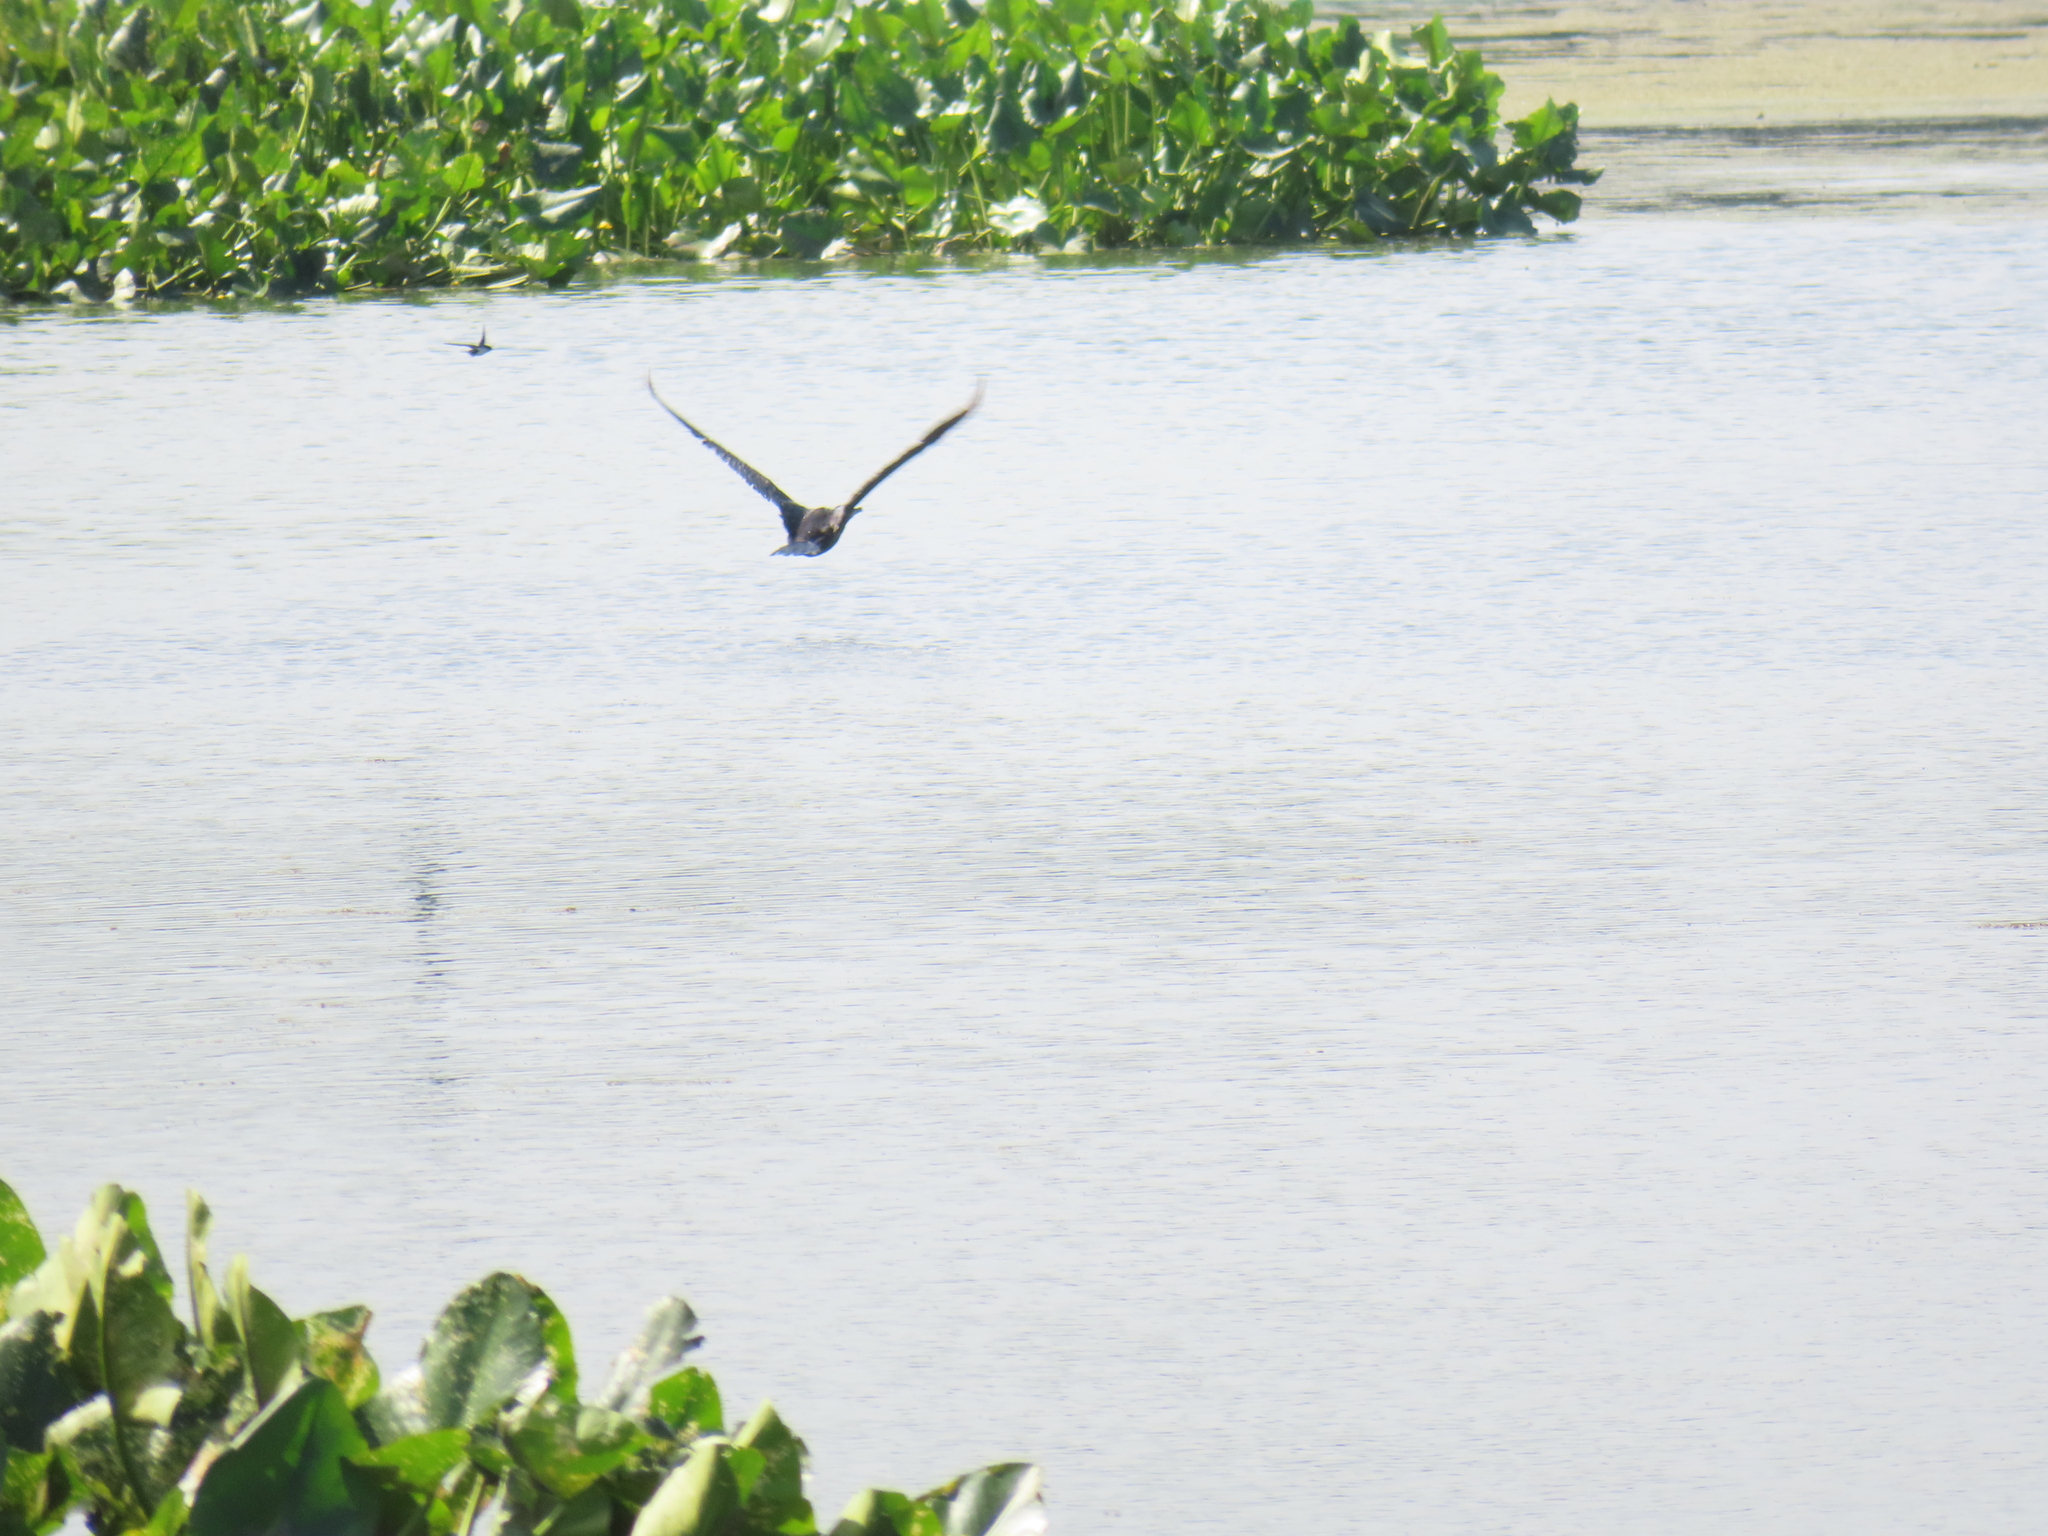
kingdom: Animalia
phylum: Chordata
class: Aves
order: Suliformes
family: Phalacrocoracidae
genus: Phalacrocorax
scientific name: Phalacrocorax auritus
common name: Double-crested cormorant
